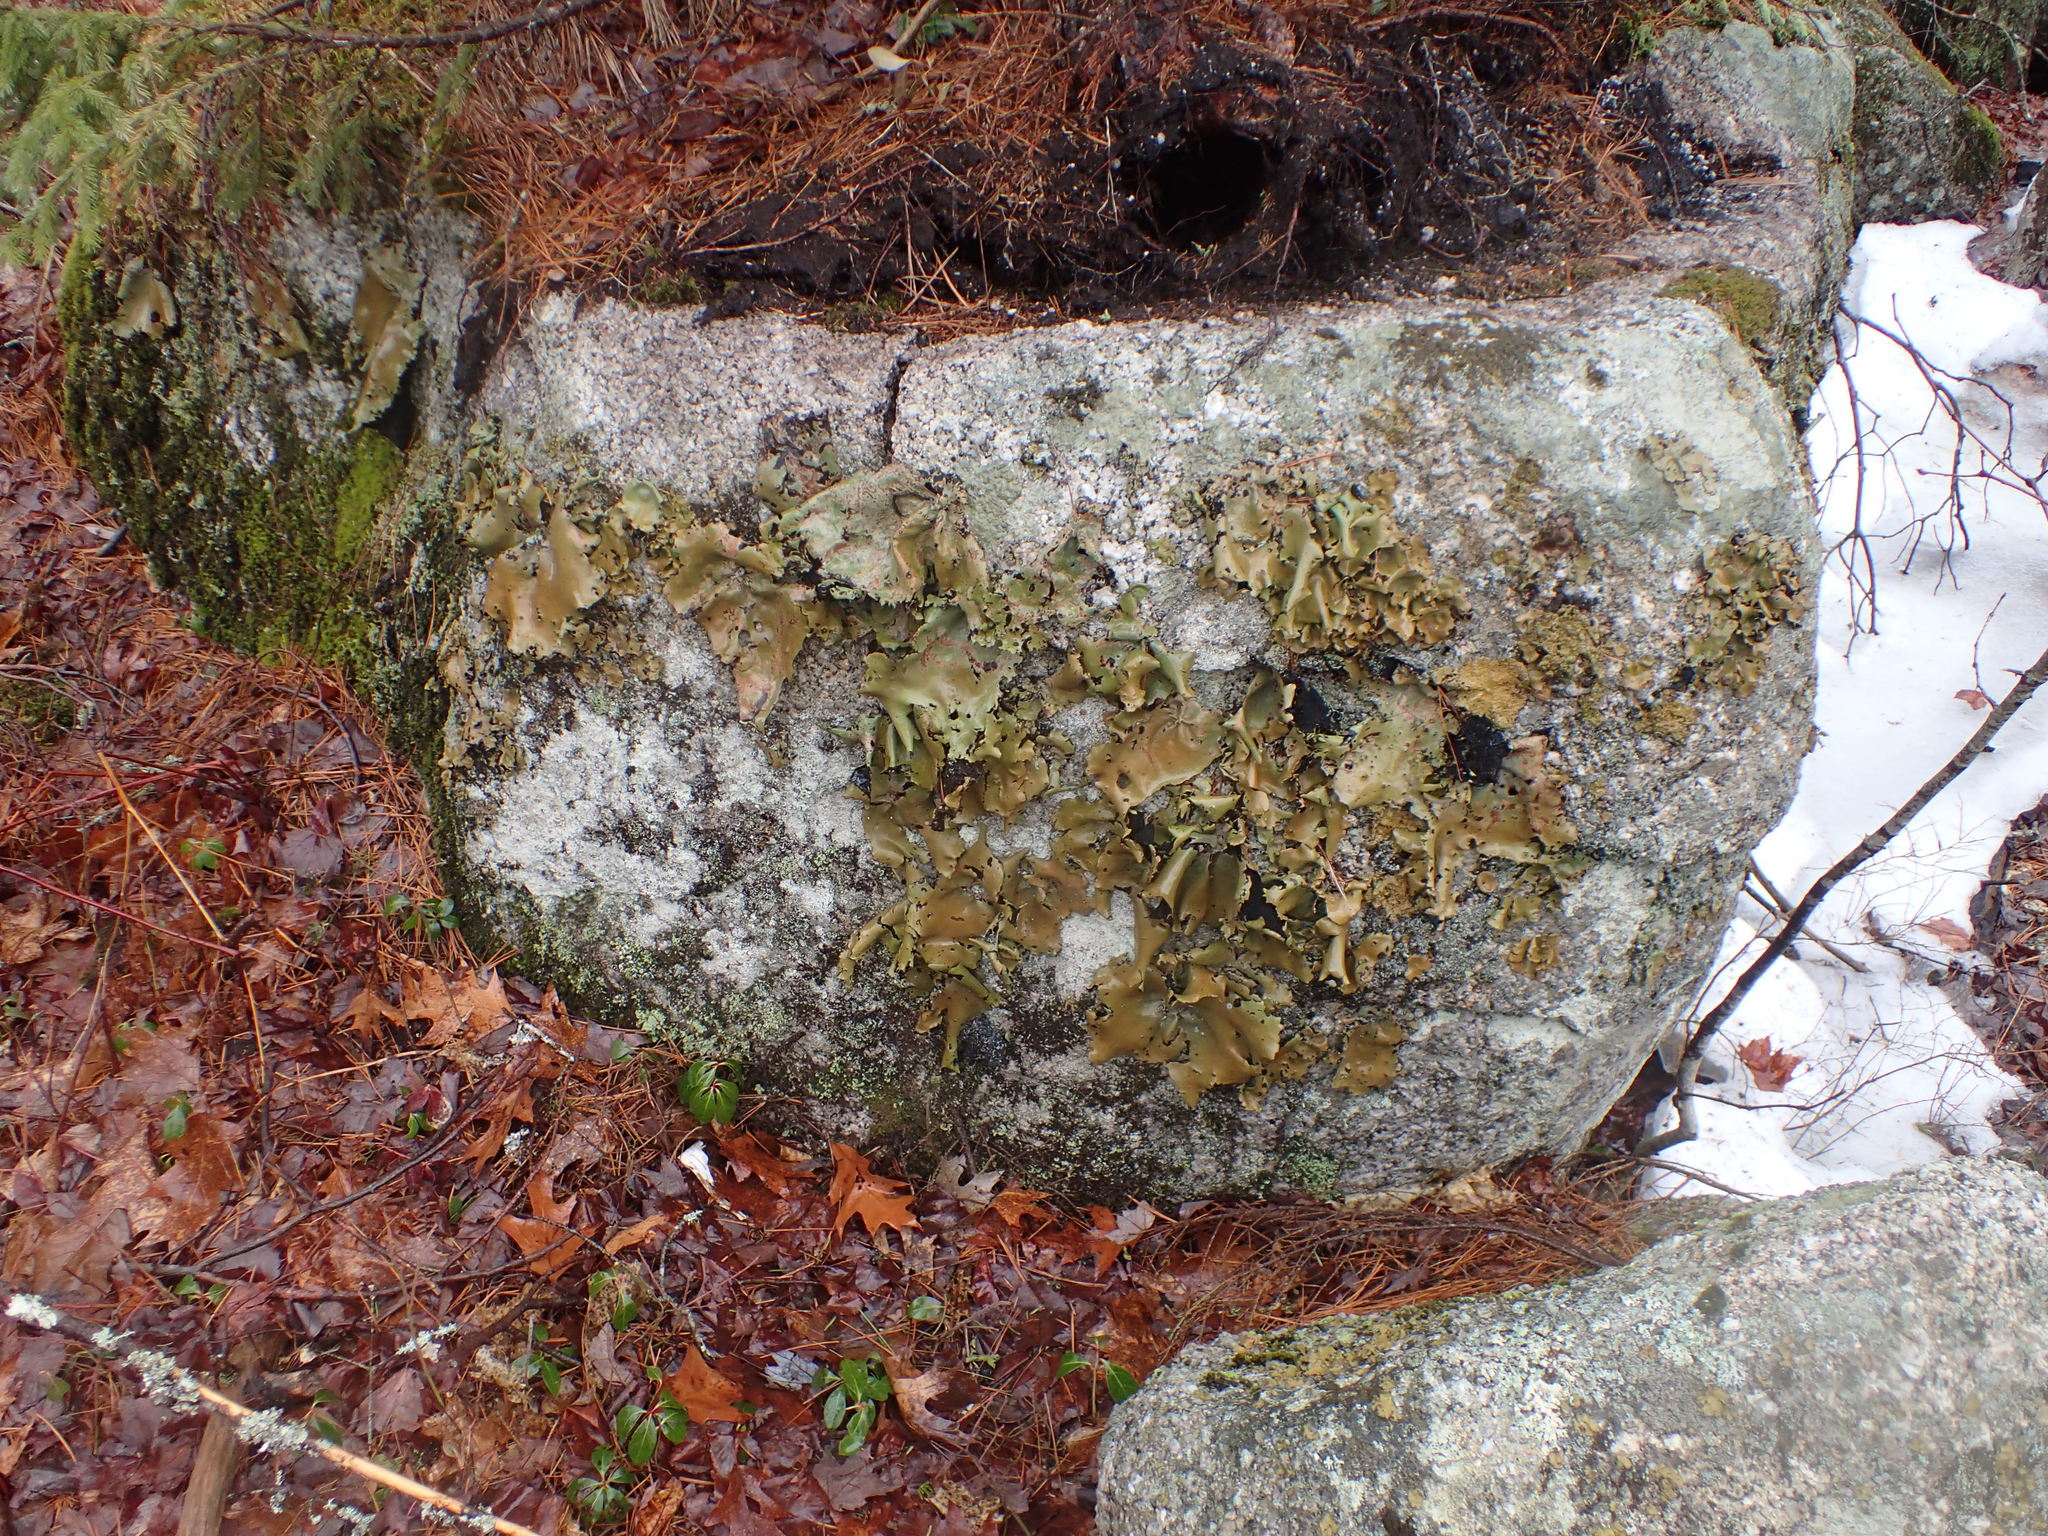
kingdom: Fungi
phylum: Ascomycota
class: Lecanoromycetes
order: Umbilicariales
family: Umbilicariaceae
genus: Umbilicaria
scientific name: Umbilicaria mammulata
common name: Smooth rock tripe
